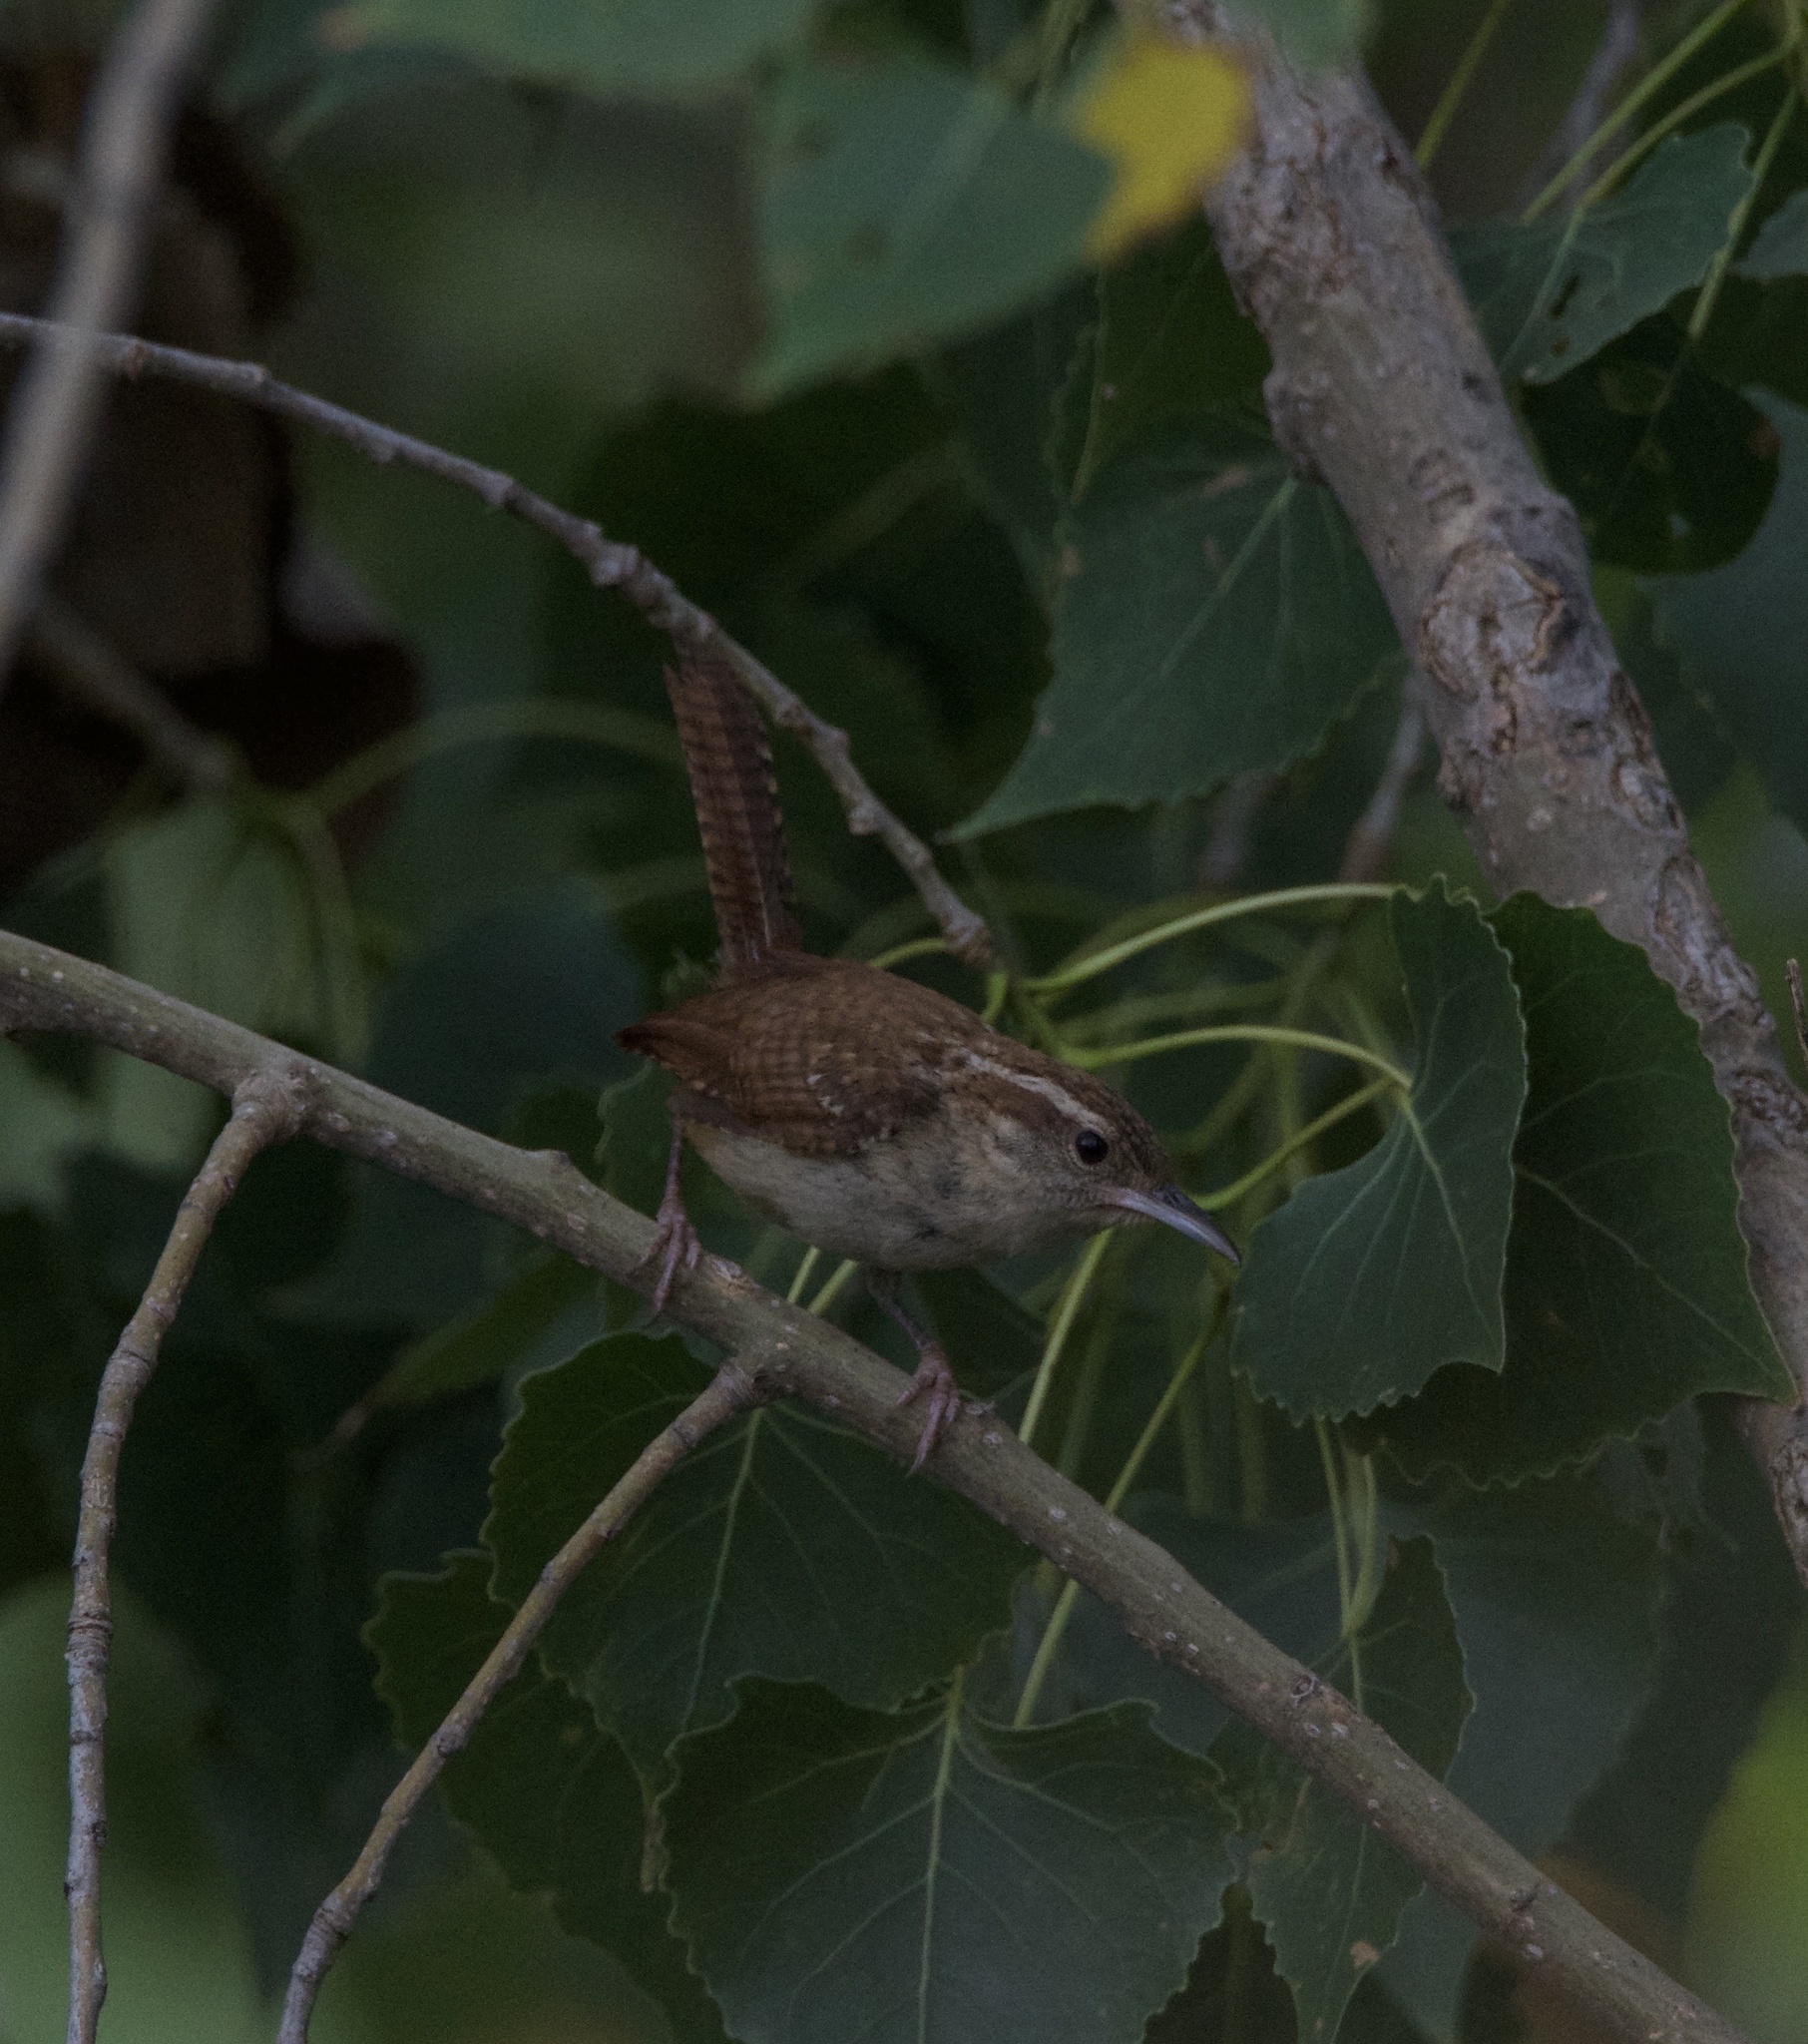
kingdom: Animalia
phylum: Chordata
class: Aves
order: Passeriformes
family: Troglodytidae
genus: Thryothorus
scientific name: Thryothorus ludovicianus
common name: Carolina wren
